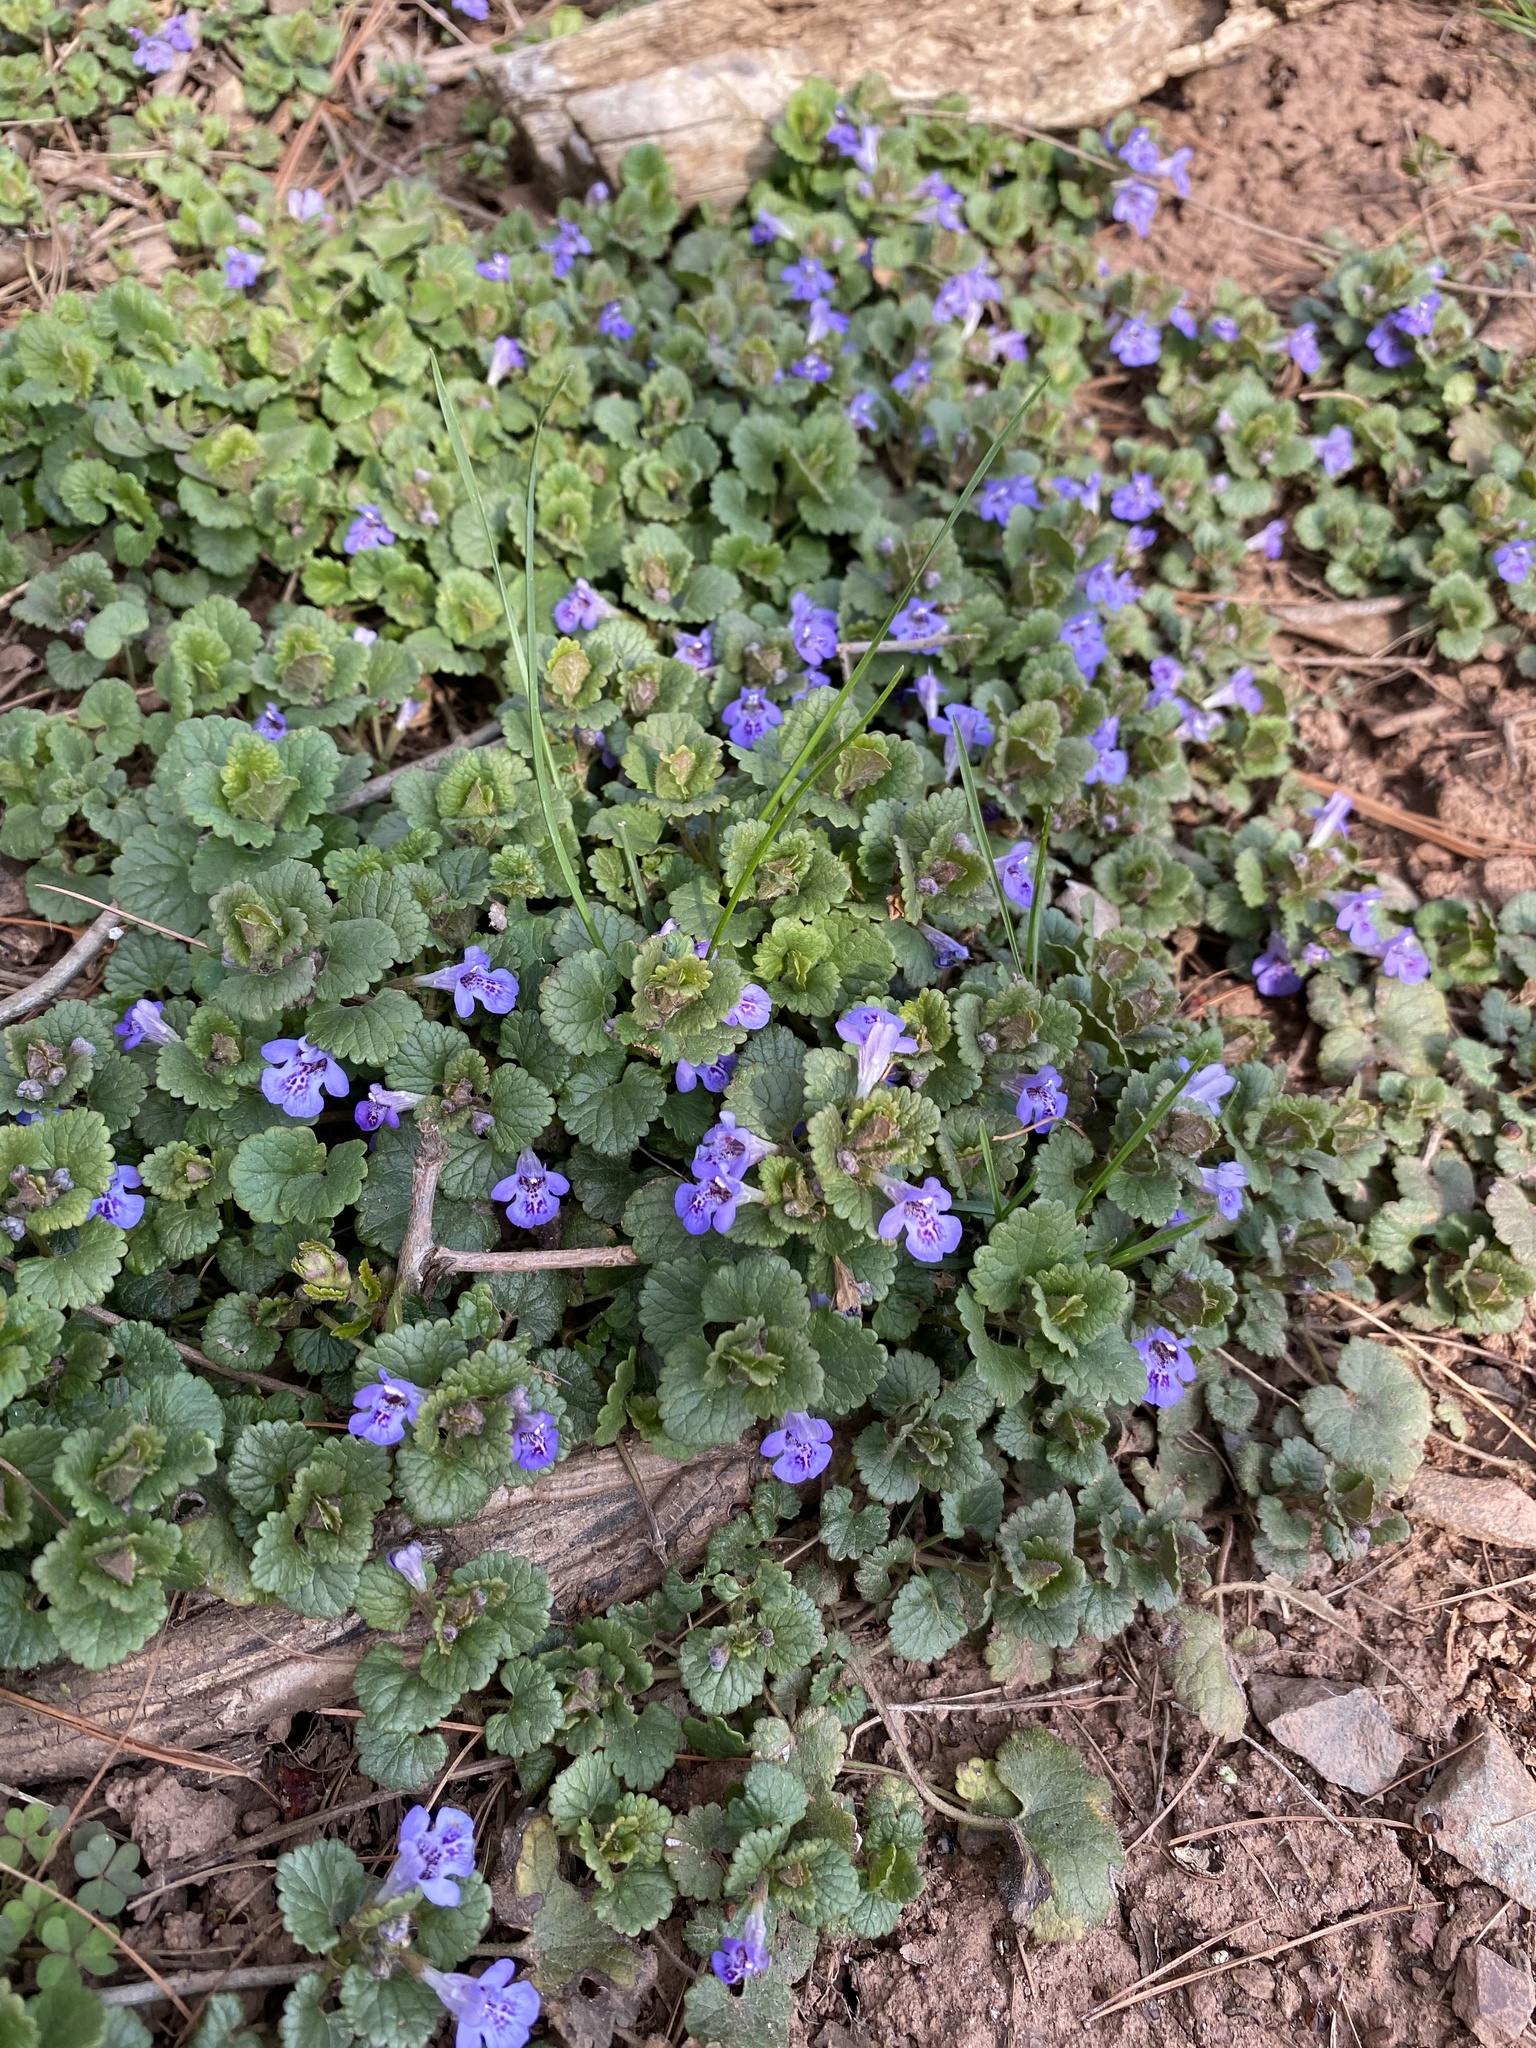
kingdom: Plantae
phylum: Tracheophyta
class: Magnoliopsida
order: Lamiales
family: Lamiaceae
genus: Glechoma
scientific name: Glechoma hederacea
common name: Ground ivy
